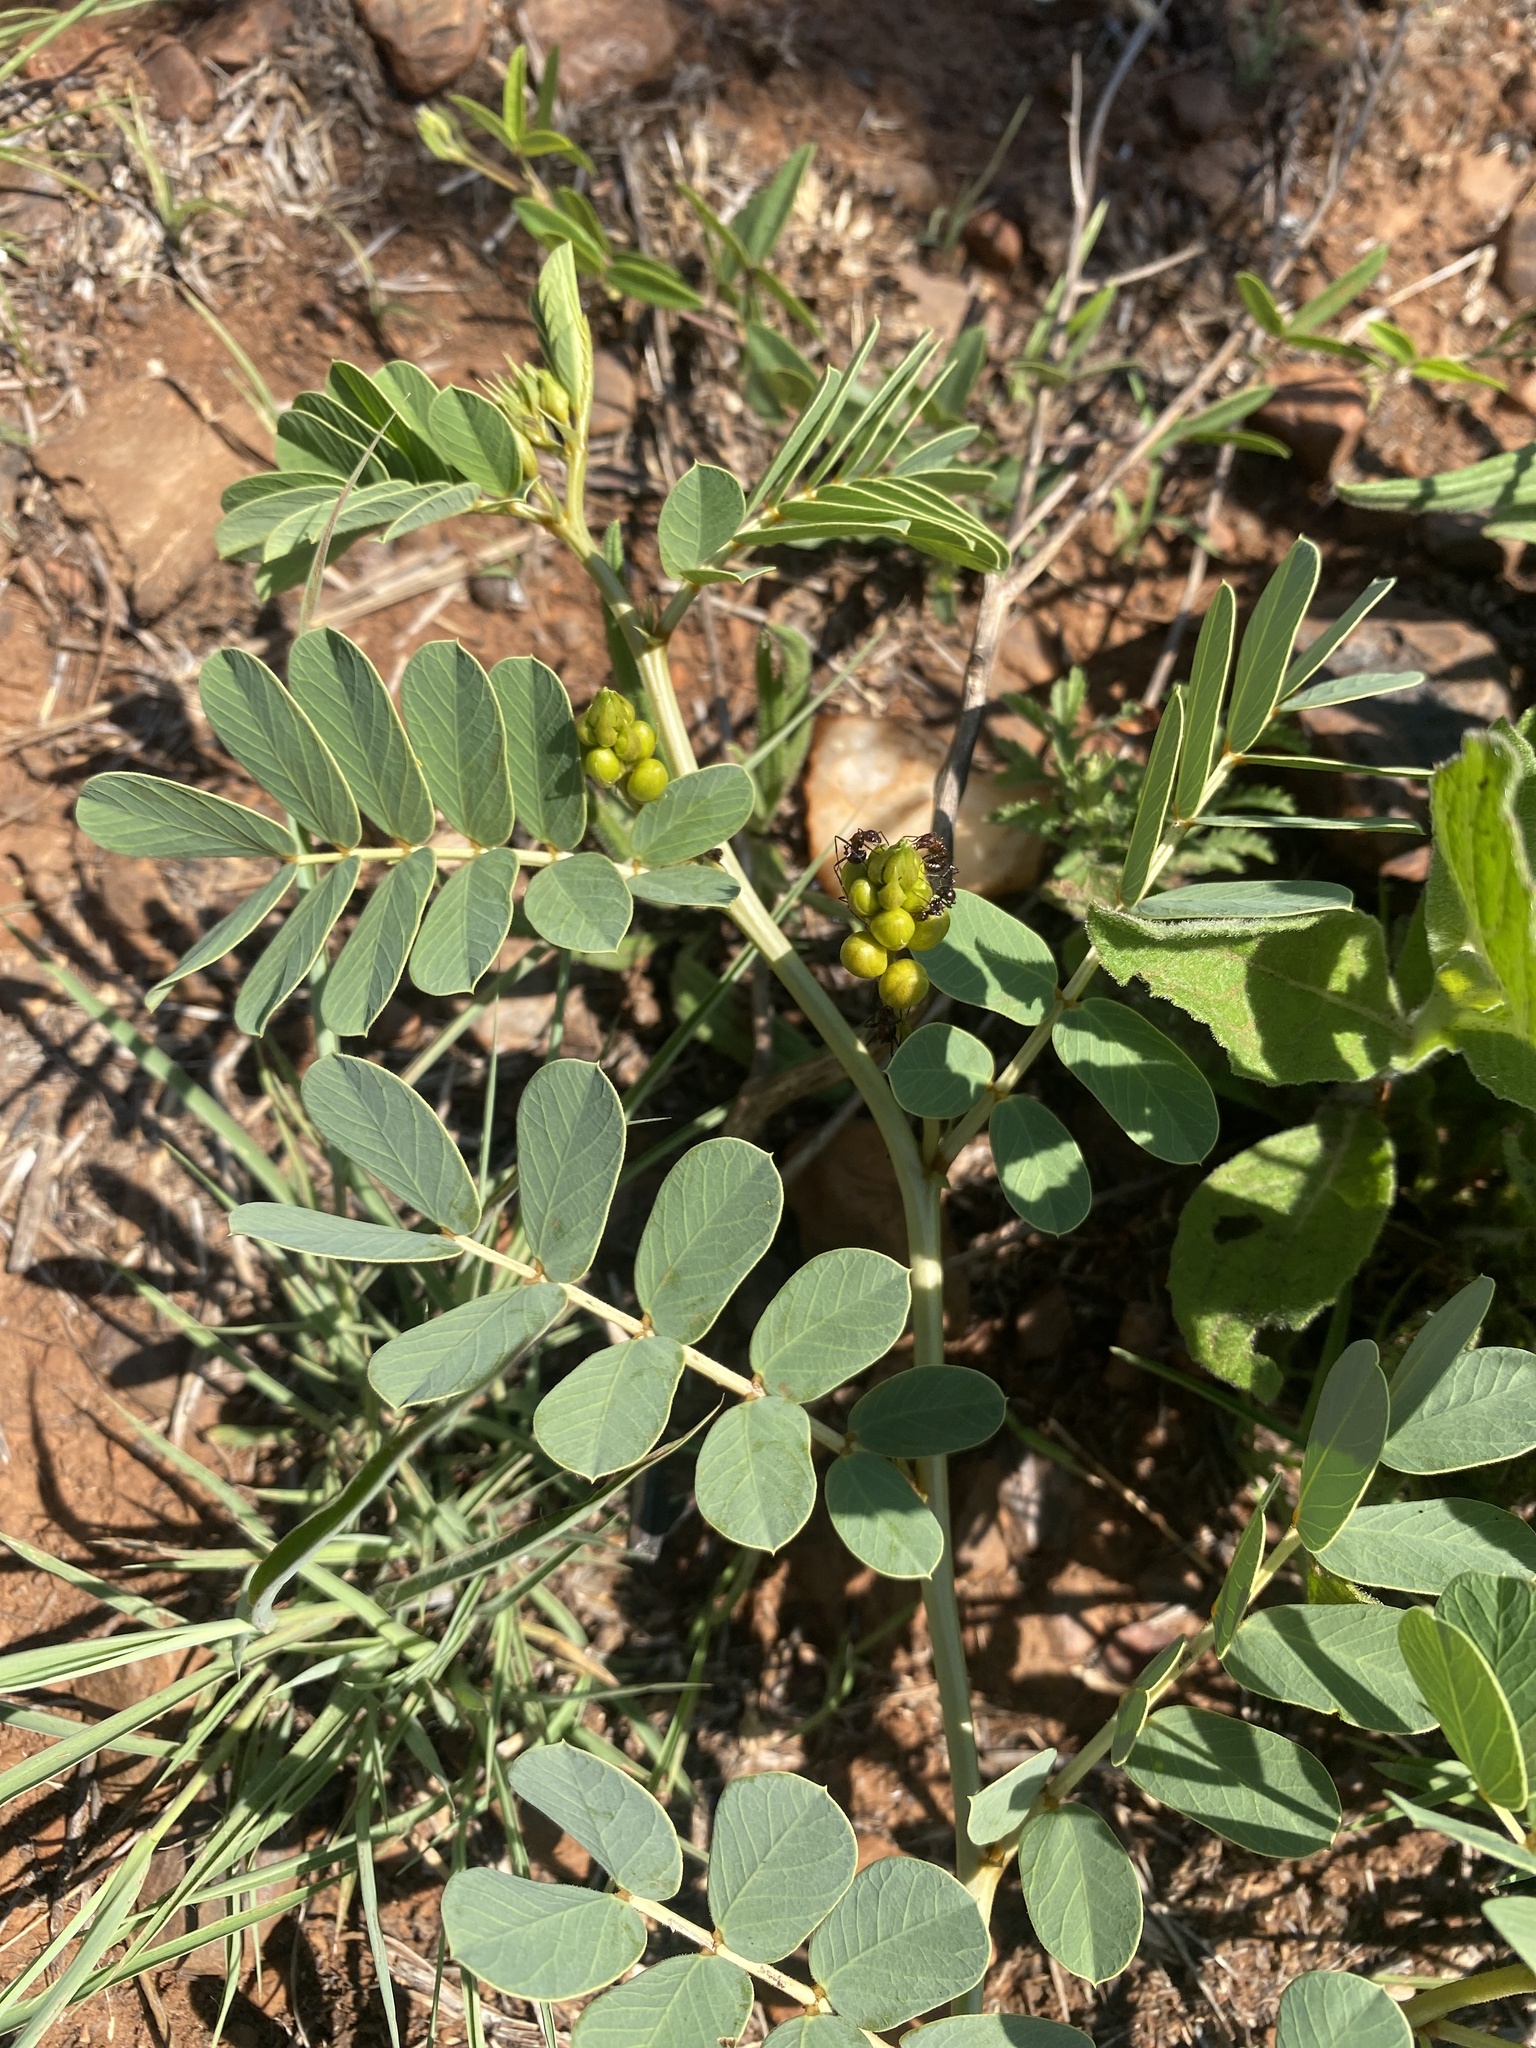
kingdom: Plantae
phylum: Tracheophyta
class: Magnoliopsida
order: Fabales
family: Fabaceae
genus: Senna
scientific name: Senna italica
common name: Port royal senna
